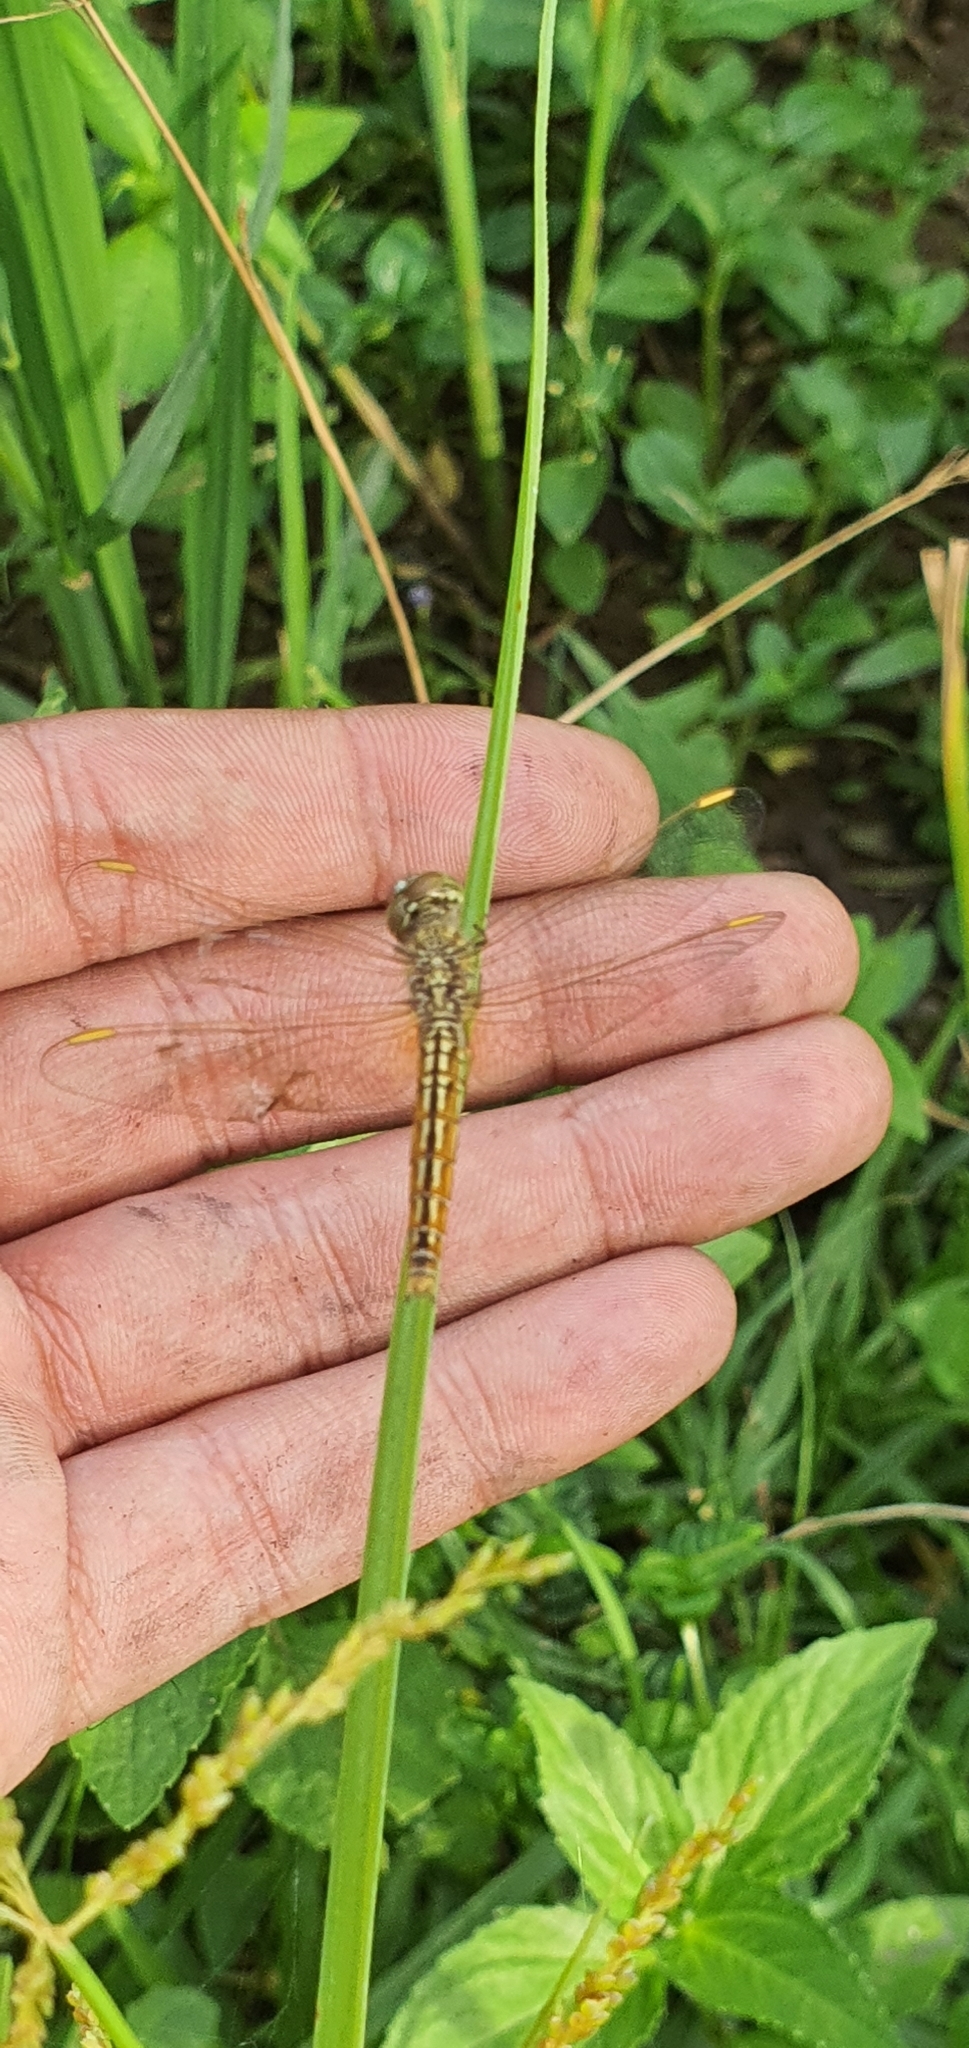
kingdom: Animalia
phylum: Arthropoda
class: Insecta
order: Odonata
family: Libellulidae
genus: Brachythemis
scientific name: Brachythemis contaminata
